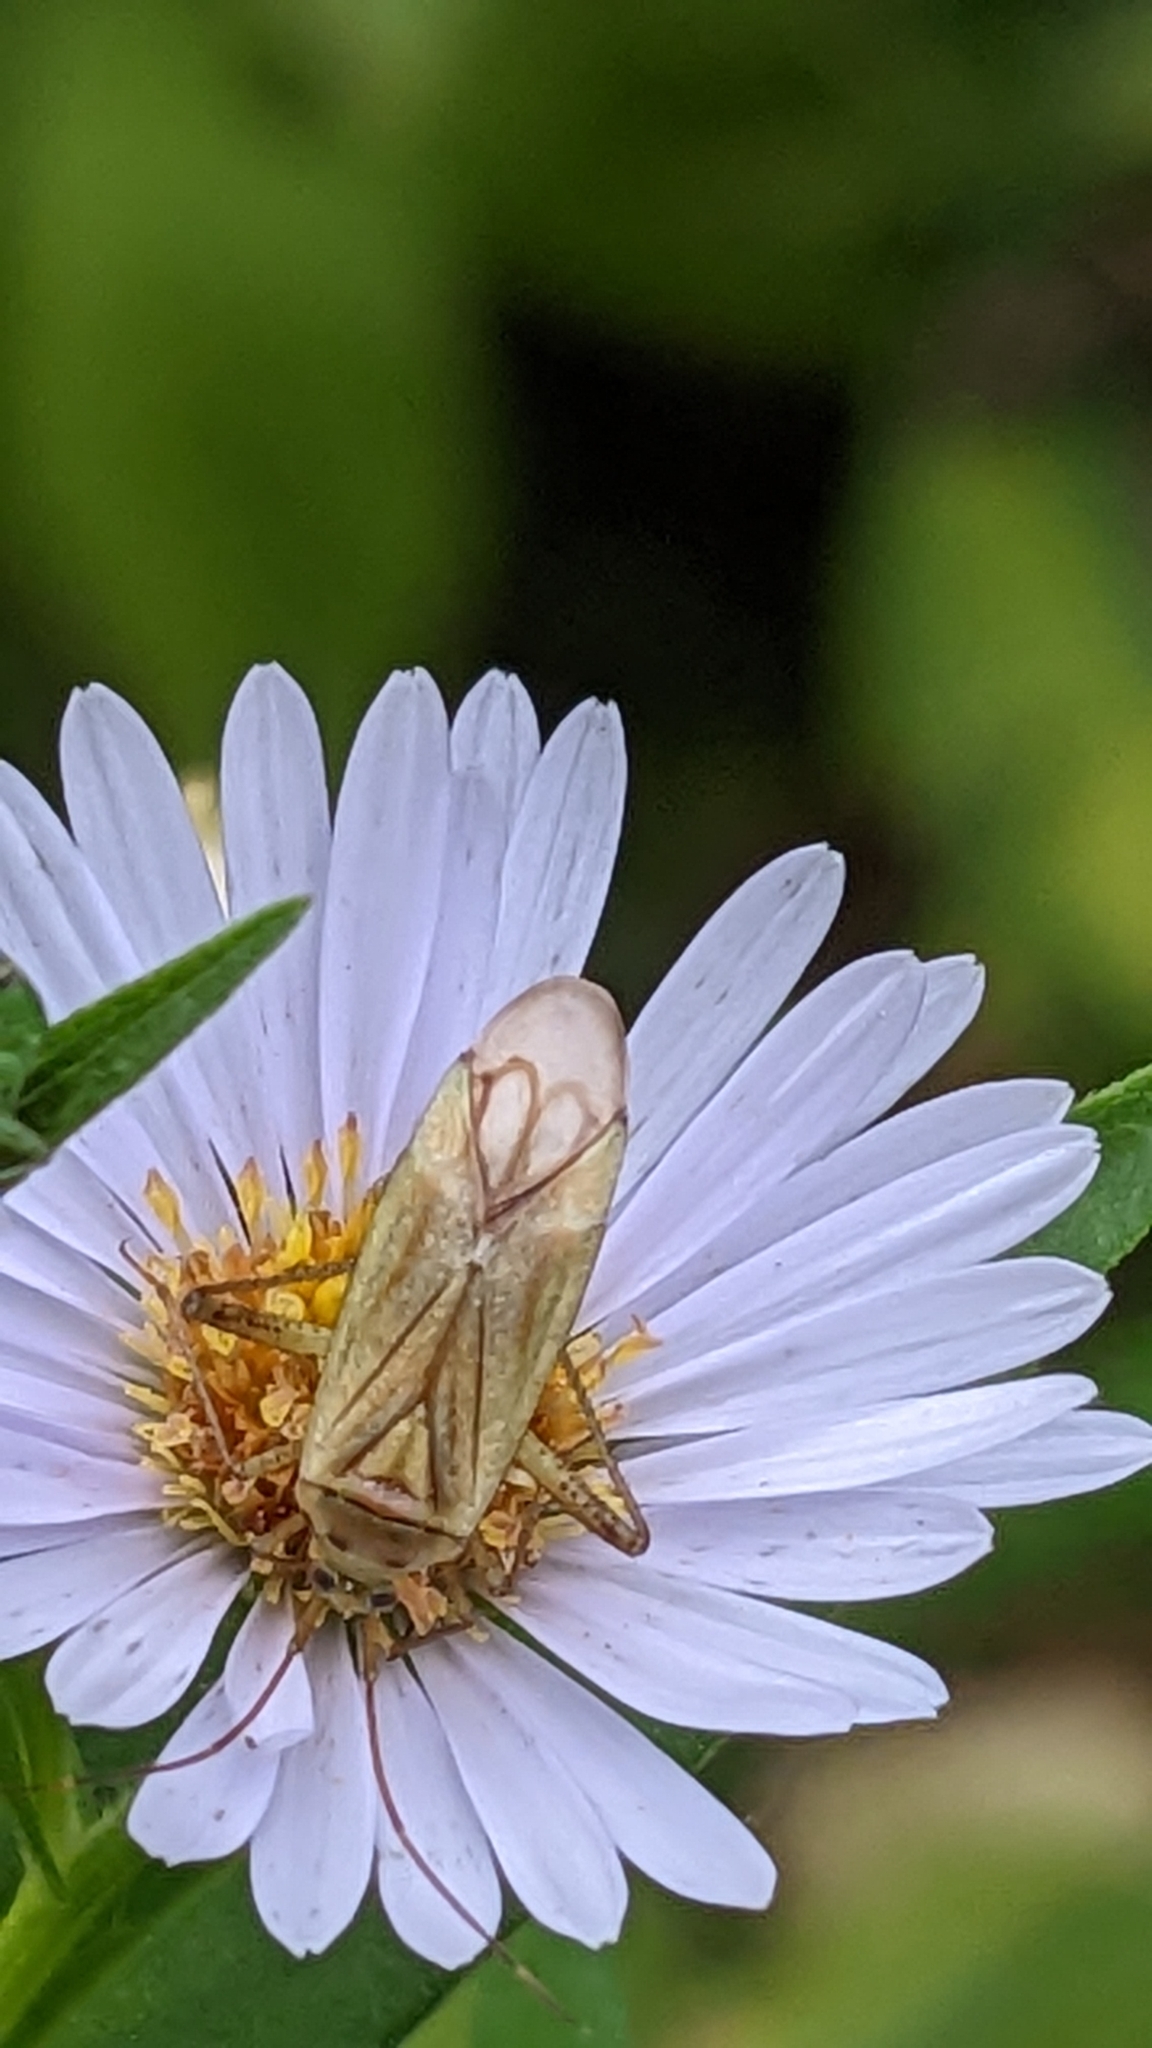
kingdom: Animalia
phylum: Arthropoda
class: Insecta
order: Hemiptera
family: Miridae
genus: Adelphocoris
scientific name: Adelphocoris quadripunctatus
